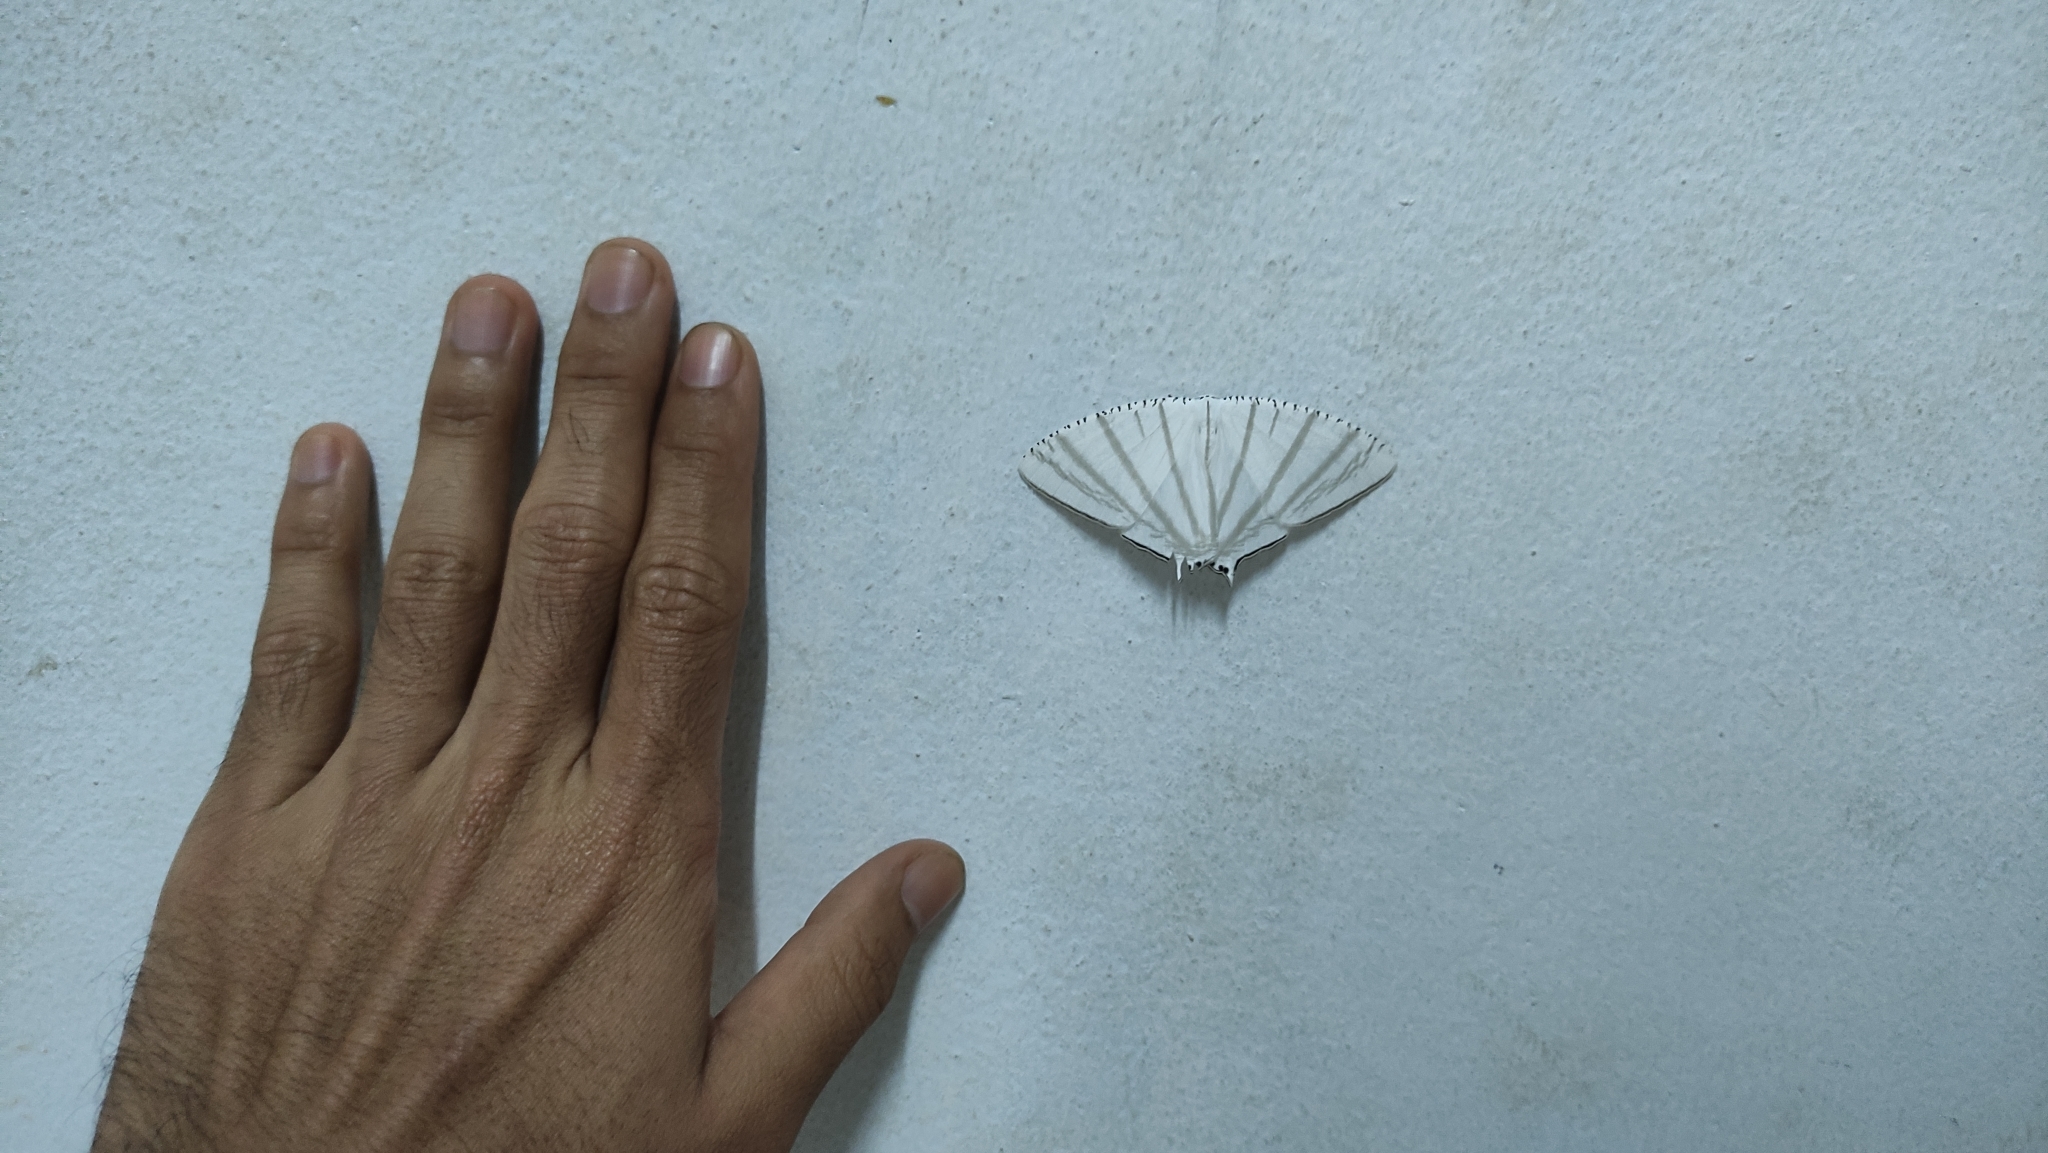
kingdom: Animalia
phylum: Arthropoda
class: Insecta
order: Lepidoptera
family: Uraniidae
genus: Urapteroides
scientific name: Urapteroides astheniata
